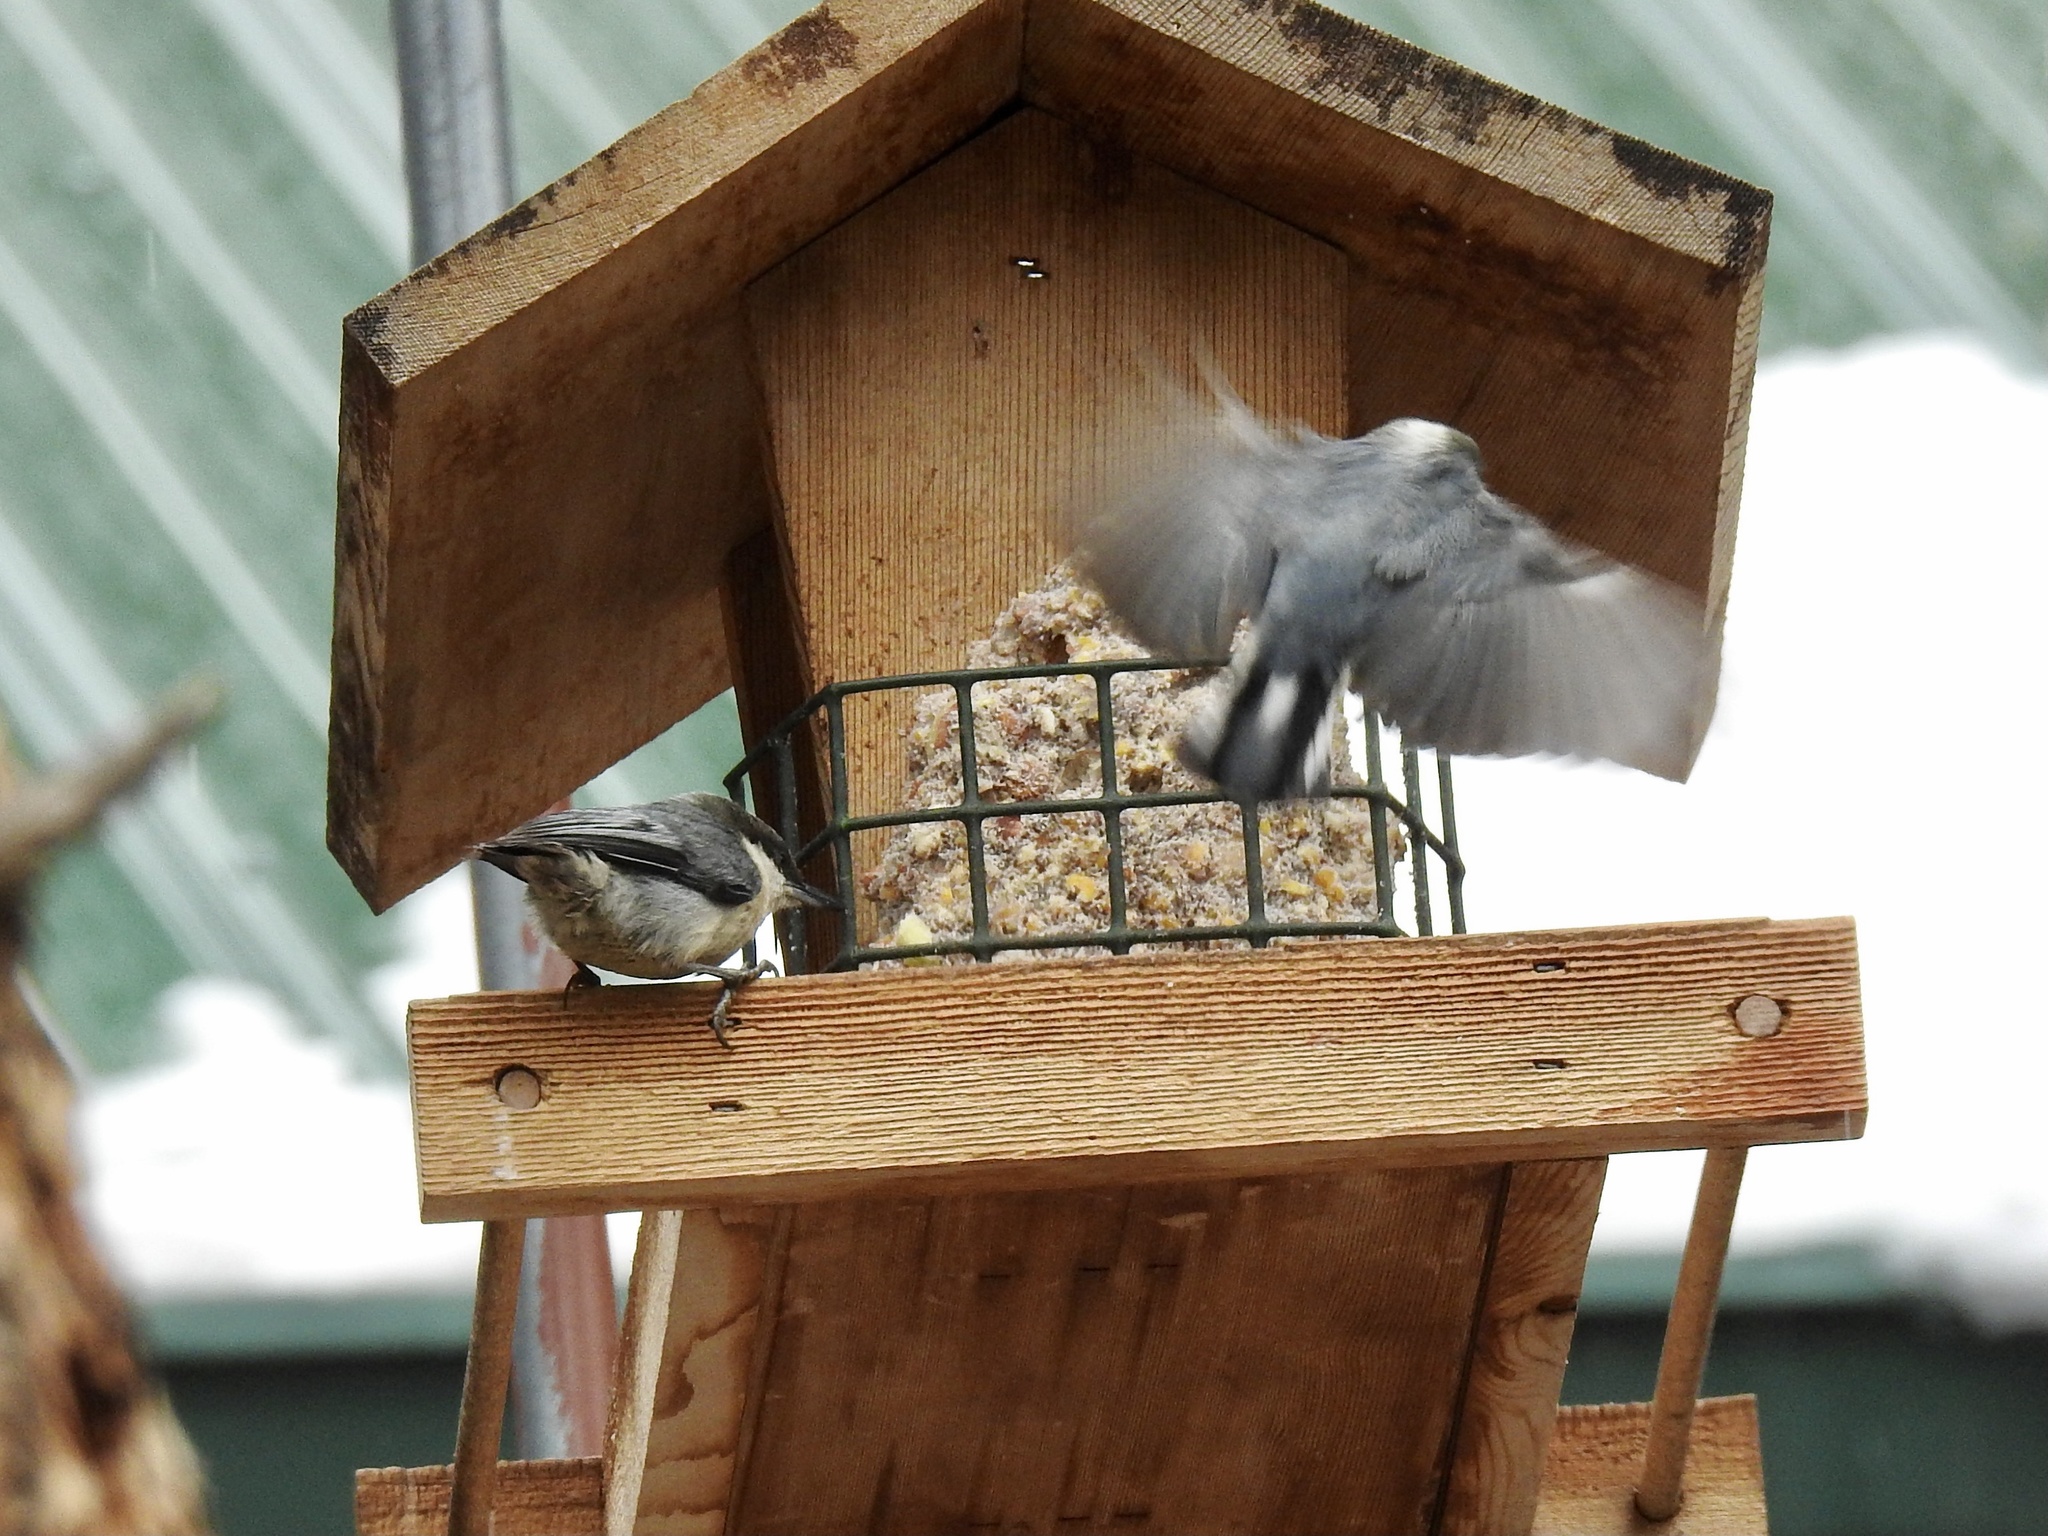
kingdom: Animalia
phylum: Chordata
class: Aves
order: Passeriformes
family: Sittidae
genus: Sitta
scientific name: Sitta pygmaea
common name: Pygmy nuthatch
